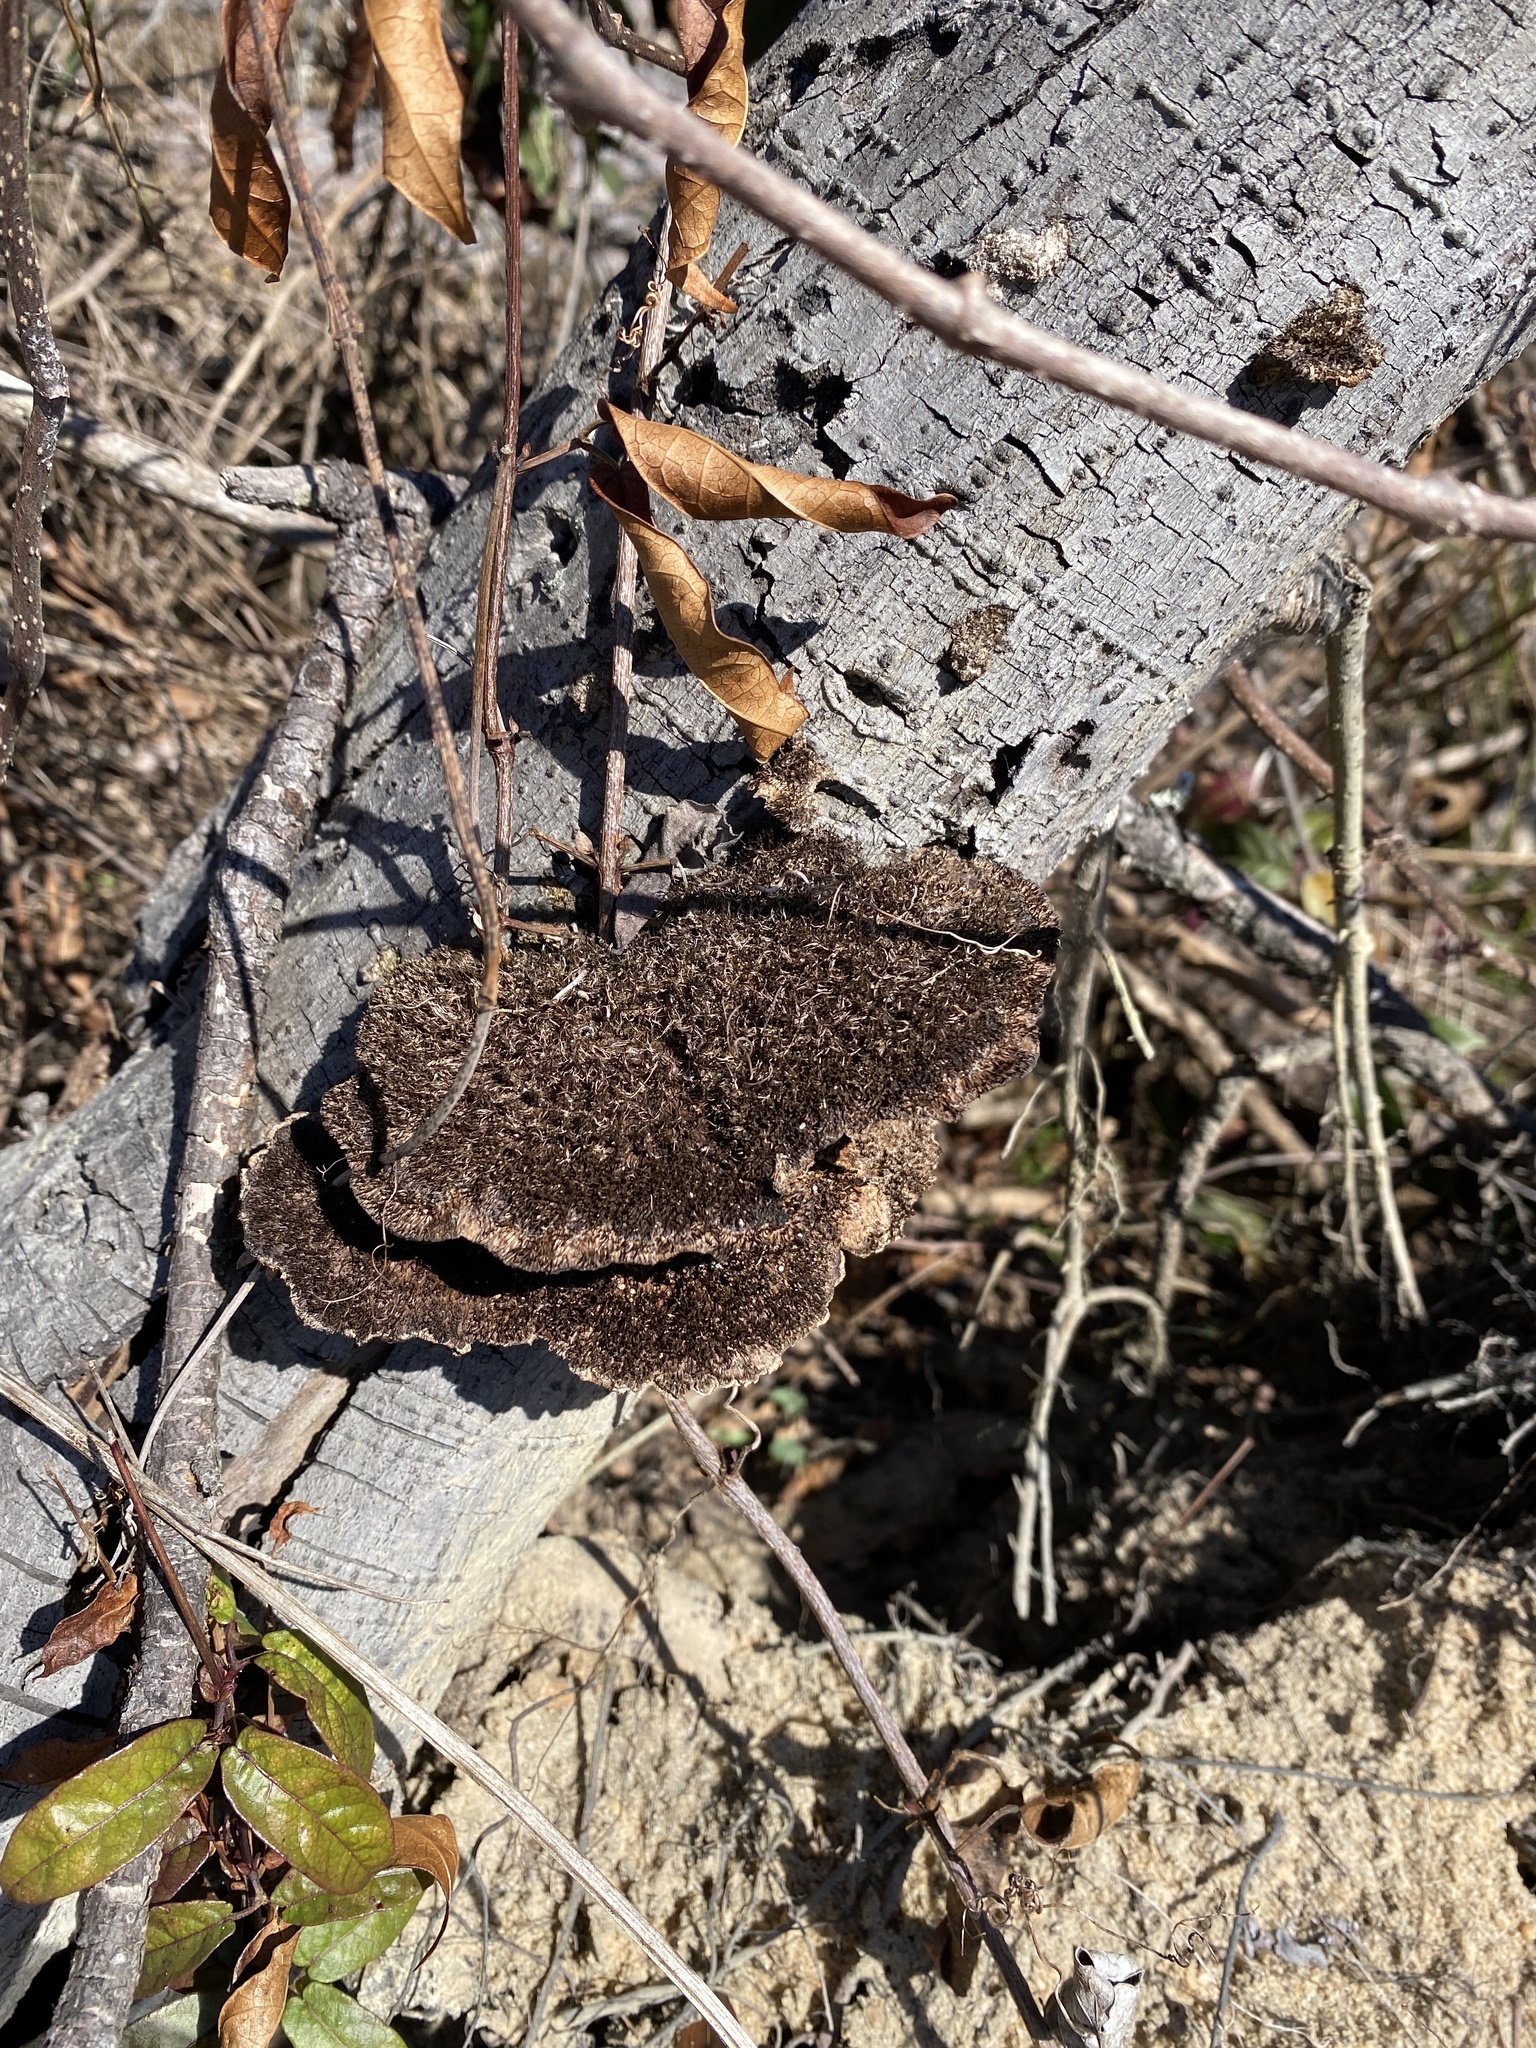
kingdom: Fungi
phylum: Basidiomycota
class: Agaricomycetes
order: Polyporales
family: Cerrenaceae
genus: Cerrena
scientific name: Cerrena hydnoides
